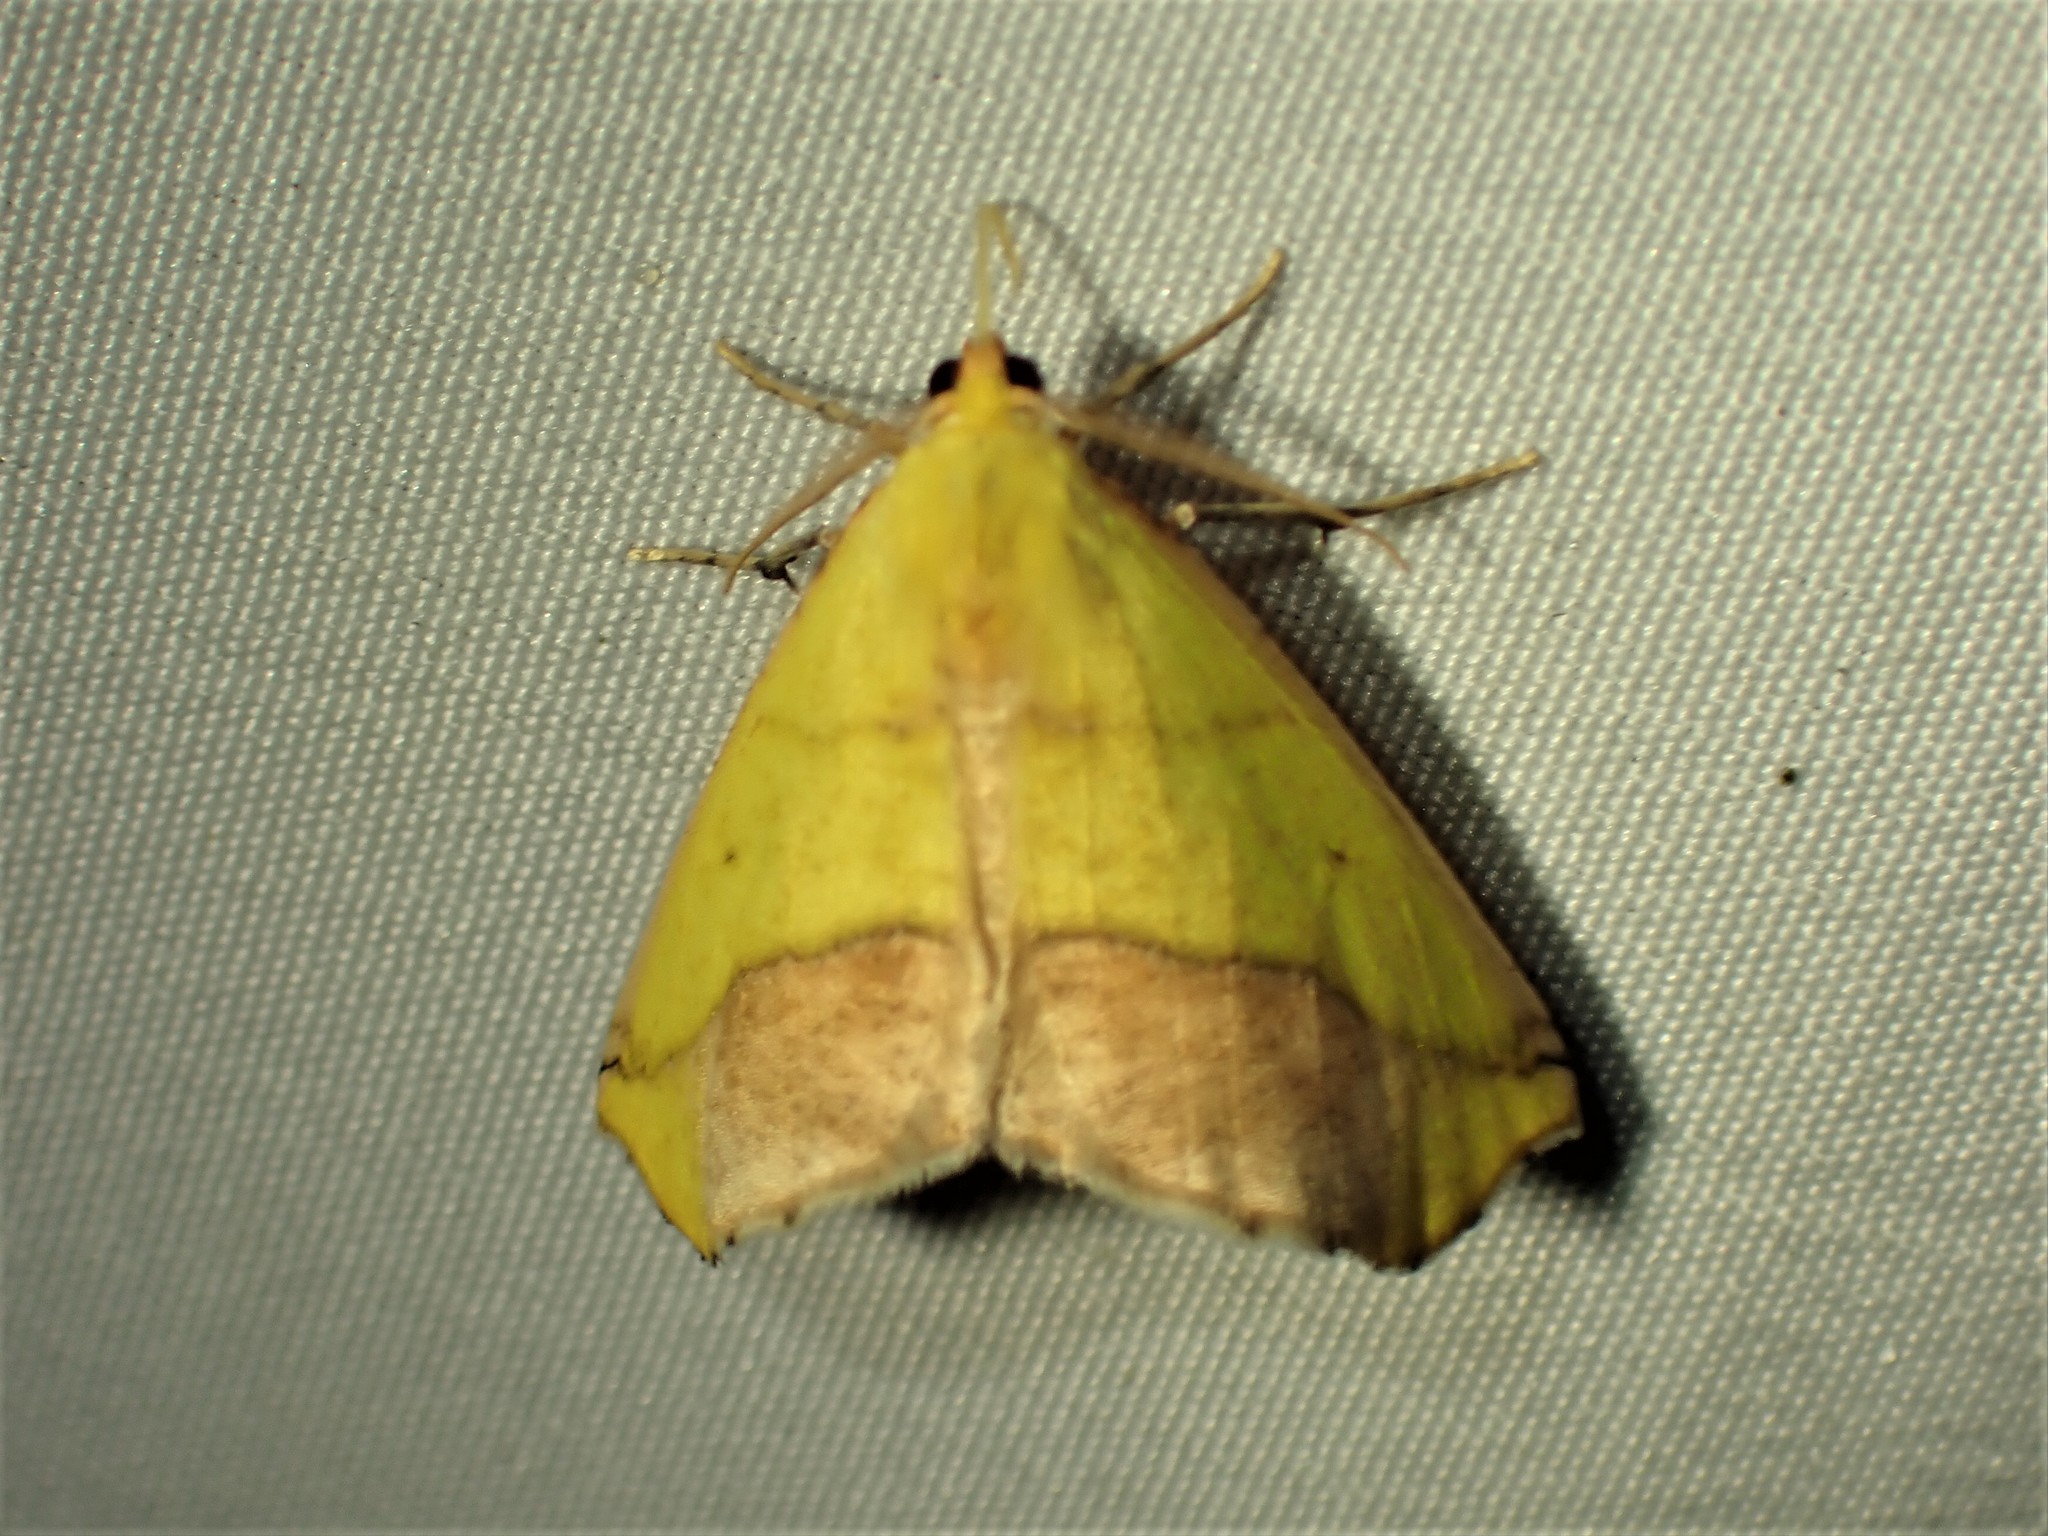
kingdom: Animalia
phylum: Arthropoda
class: Insecta
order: Lepidoptera
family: Geometridae
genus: Sicya
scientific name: Sicya macularia
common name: Sharp-lined yellow
